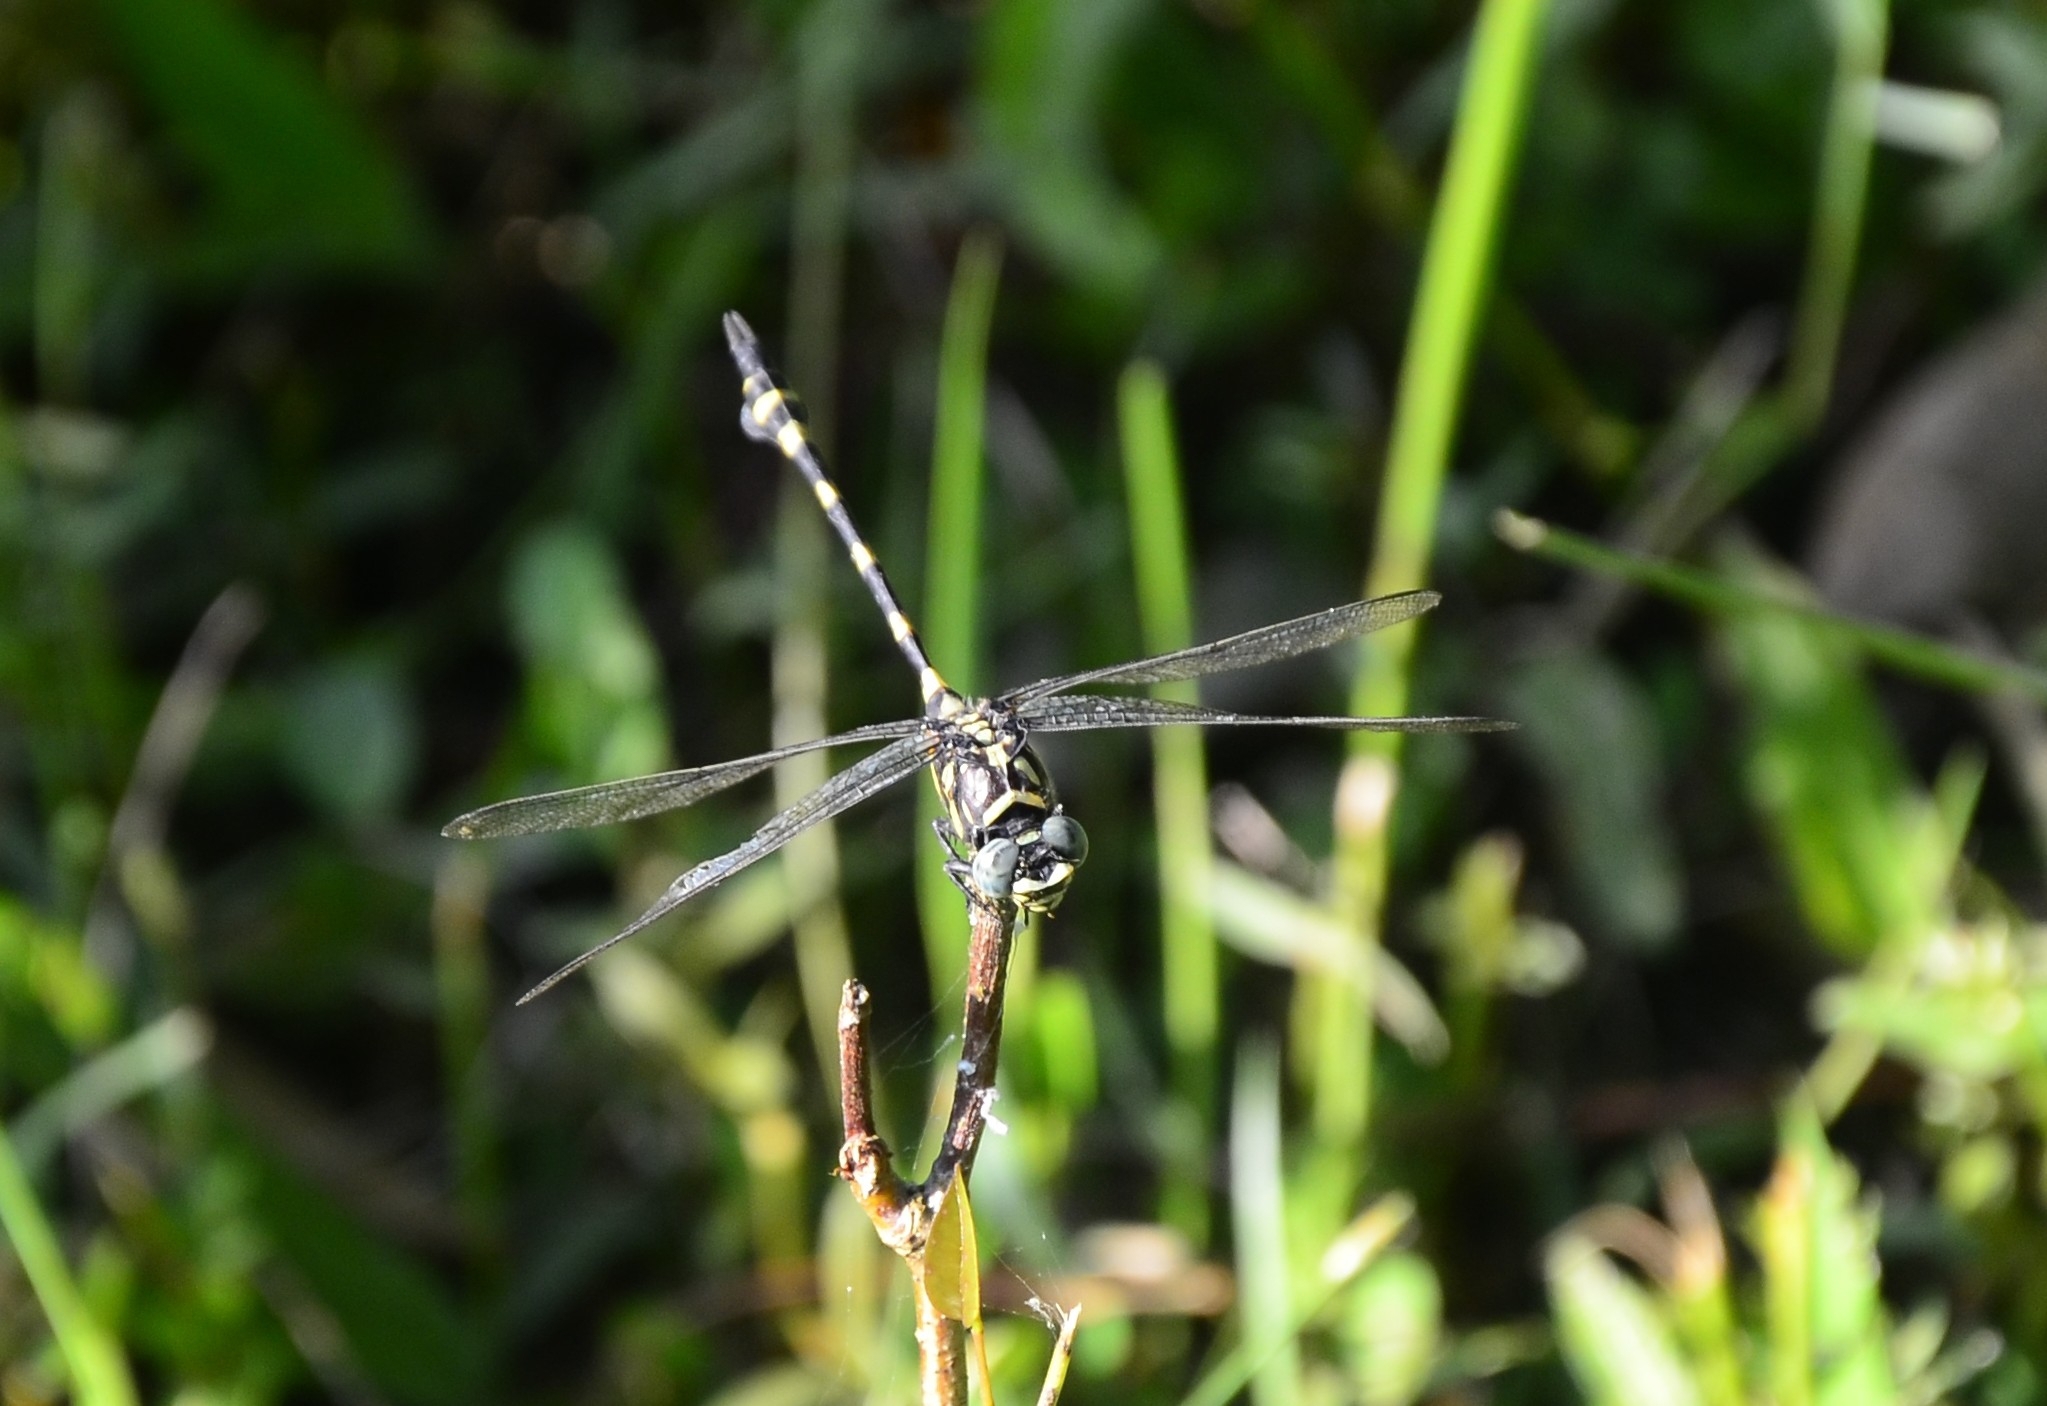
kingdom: Animalia
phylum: Arthropoda
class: Insecta
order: Odonata
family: Gomphidae
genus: Ictinogomphus
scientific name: Ictinogomphus rapax
